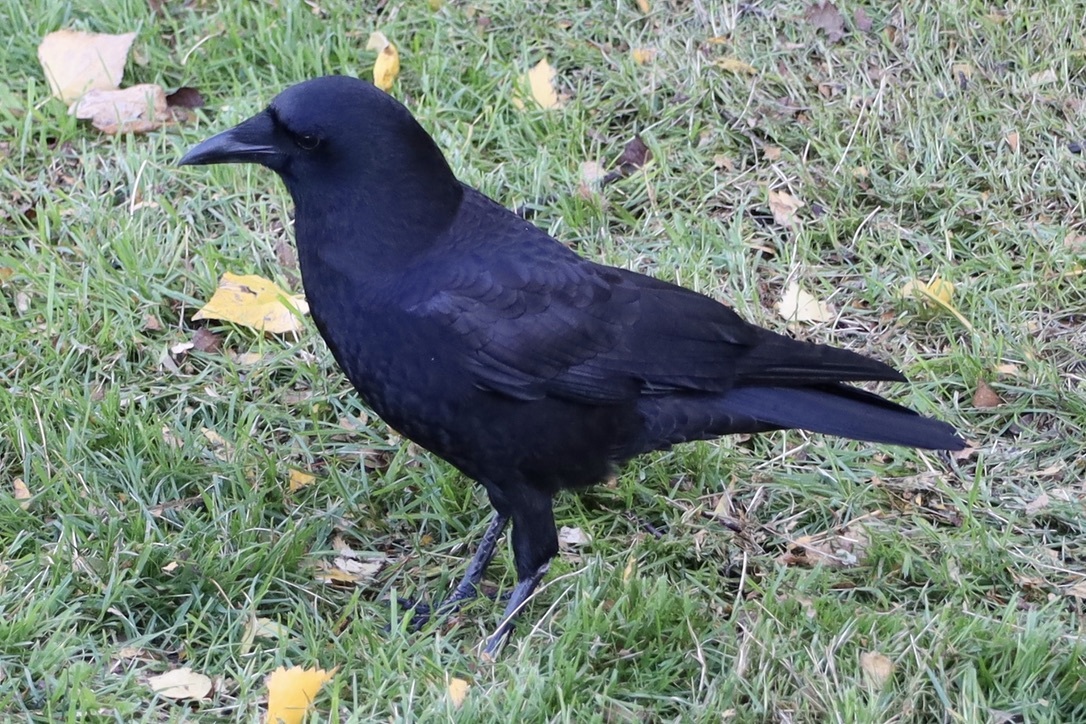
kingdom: Animalia
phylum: Chordata
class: Aves
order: Passeriformes
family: Corvidae
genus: Corvus
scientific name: Corvus brachyrhynchos
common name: American crow
